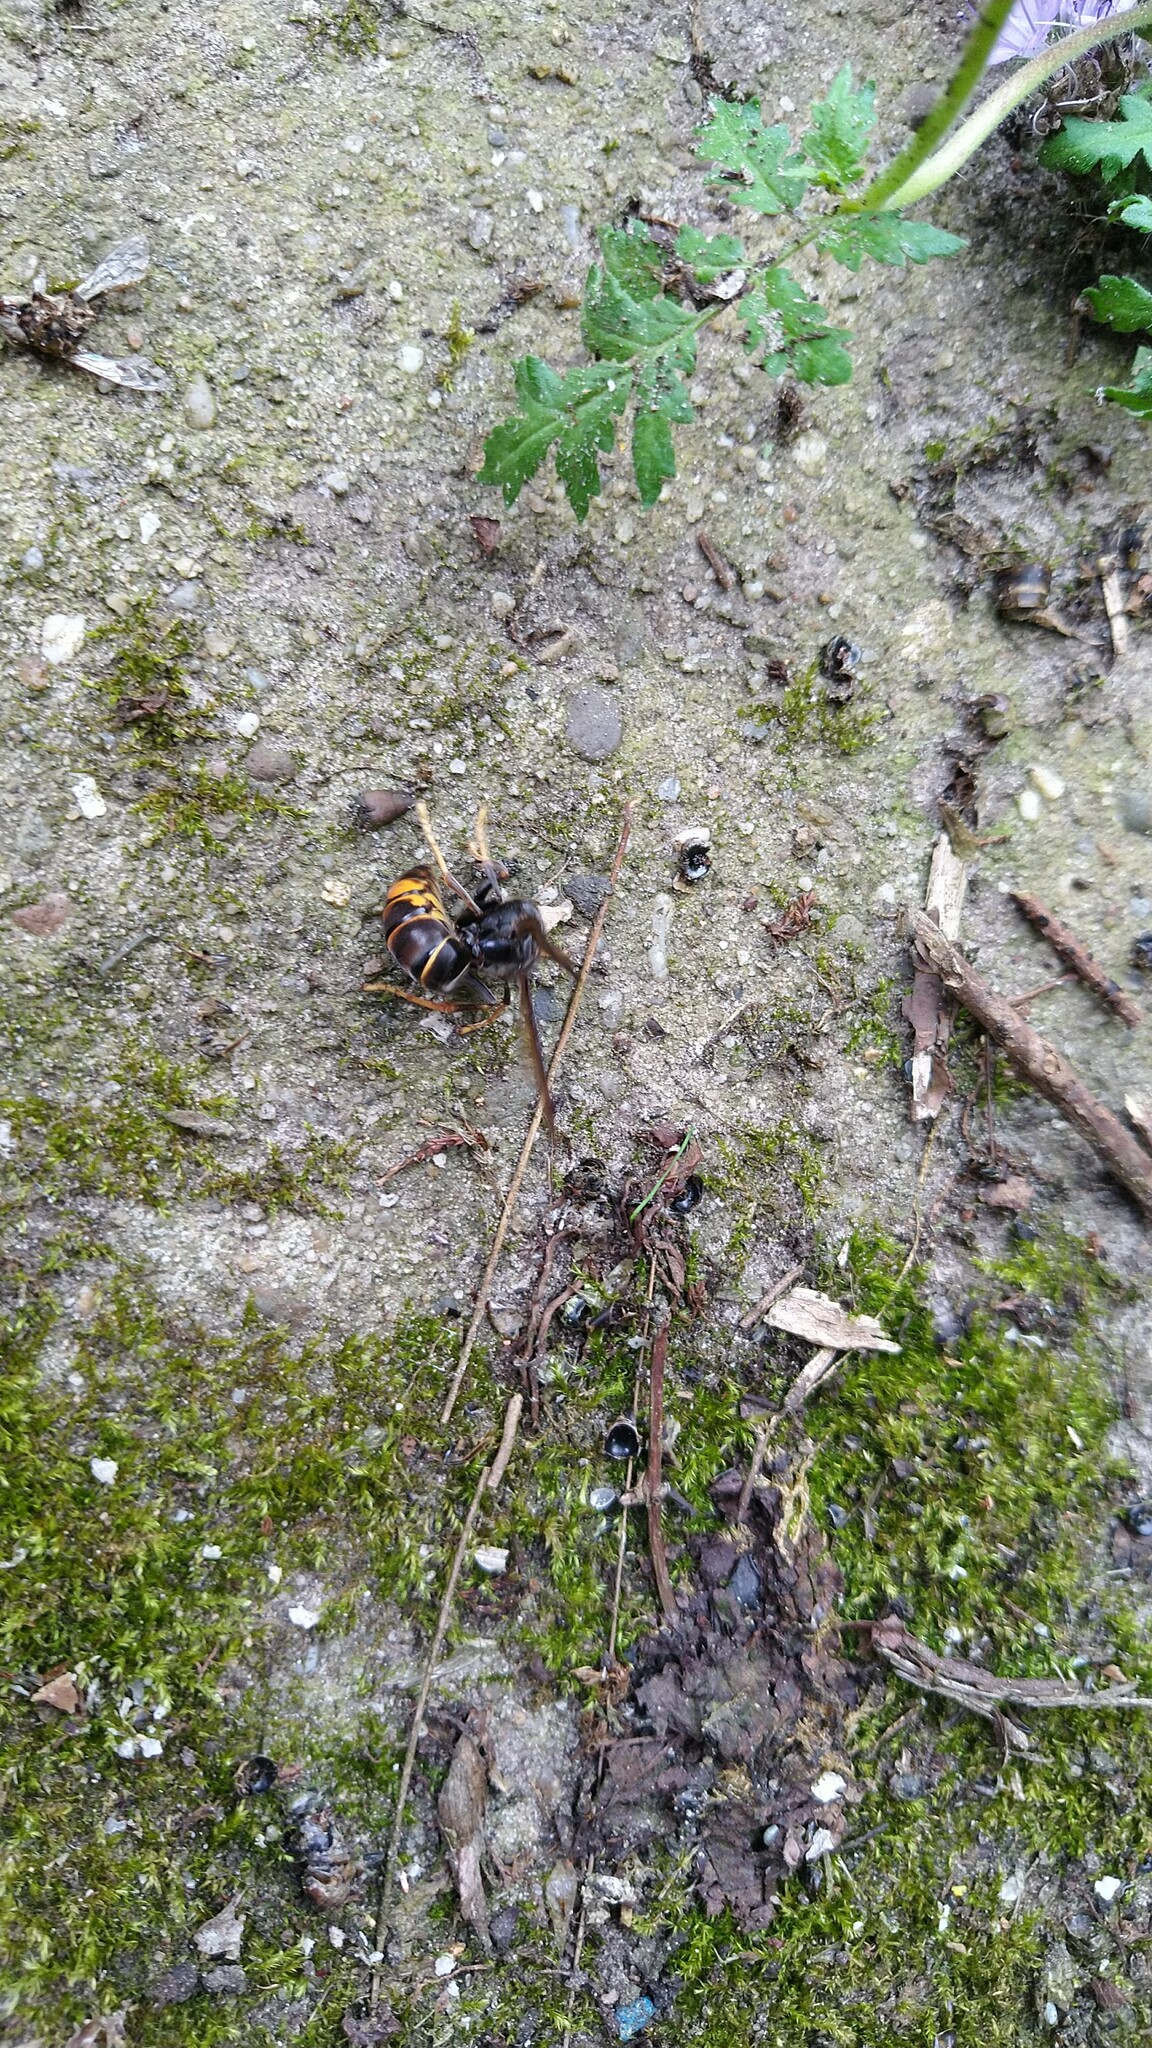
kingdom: Animalia
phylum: Arthropoda
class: Insecta
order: Hymenoptera
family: Vespidae
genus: Vespa
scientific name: Vespa velutina
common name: Asian hornet
